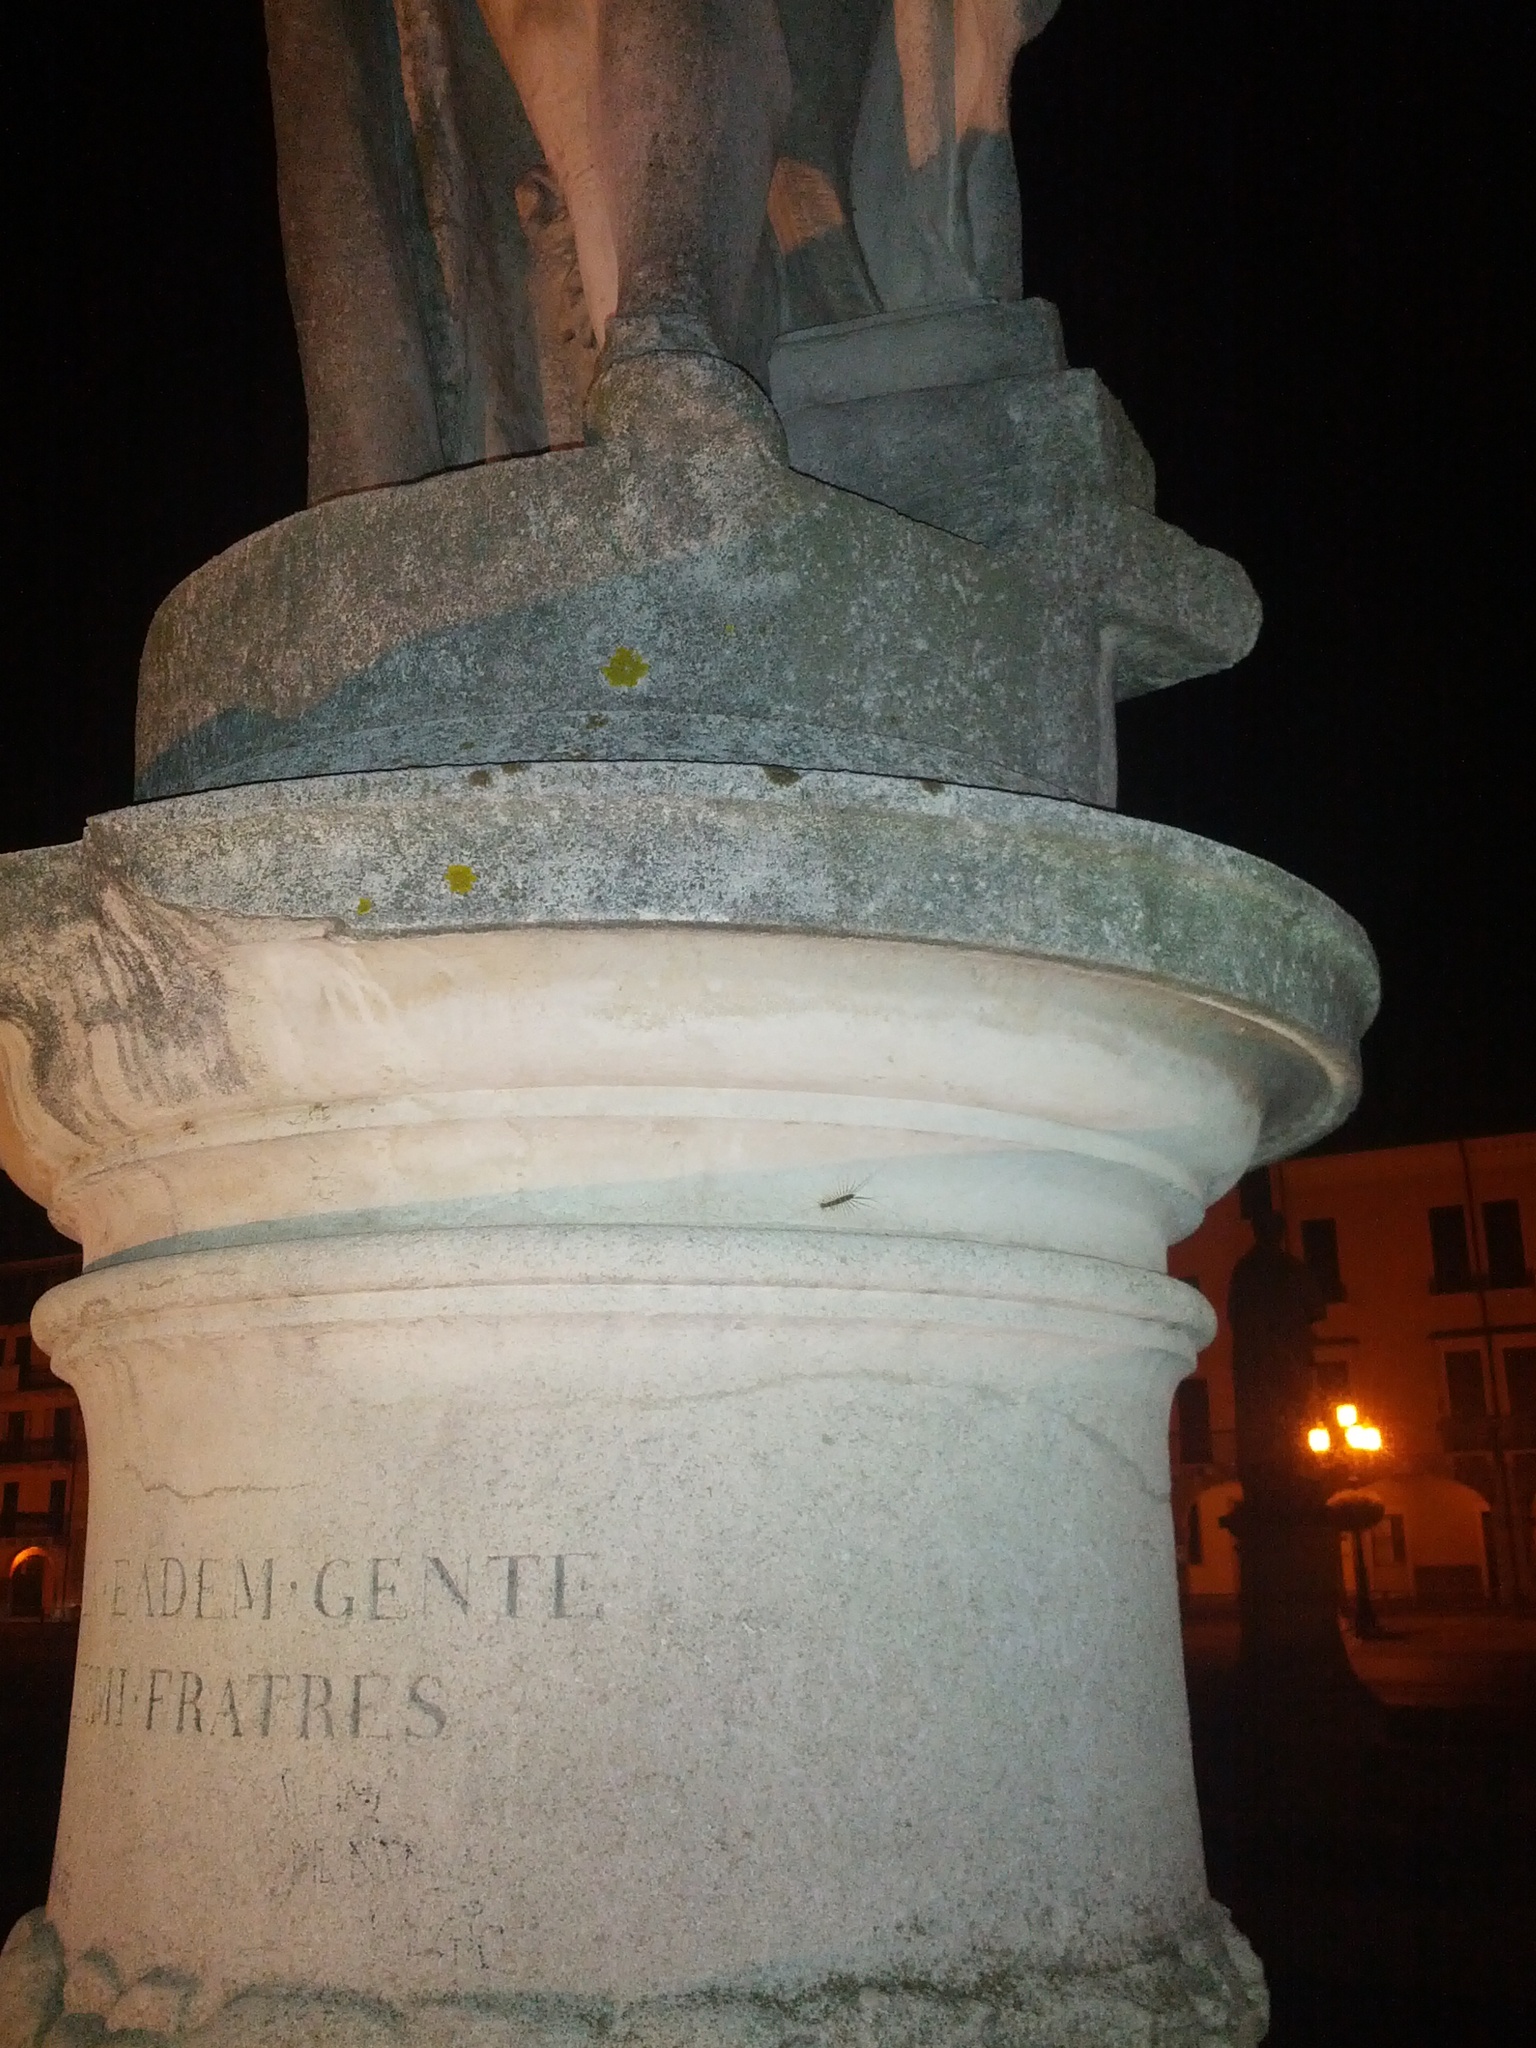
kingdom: Animalia
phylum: Arthropoda
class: Chilopoda
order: Scutigeromorpha
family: Scutigeridae
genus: Scutigera
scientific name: Scutigera coleoptrata
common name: House centipede
